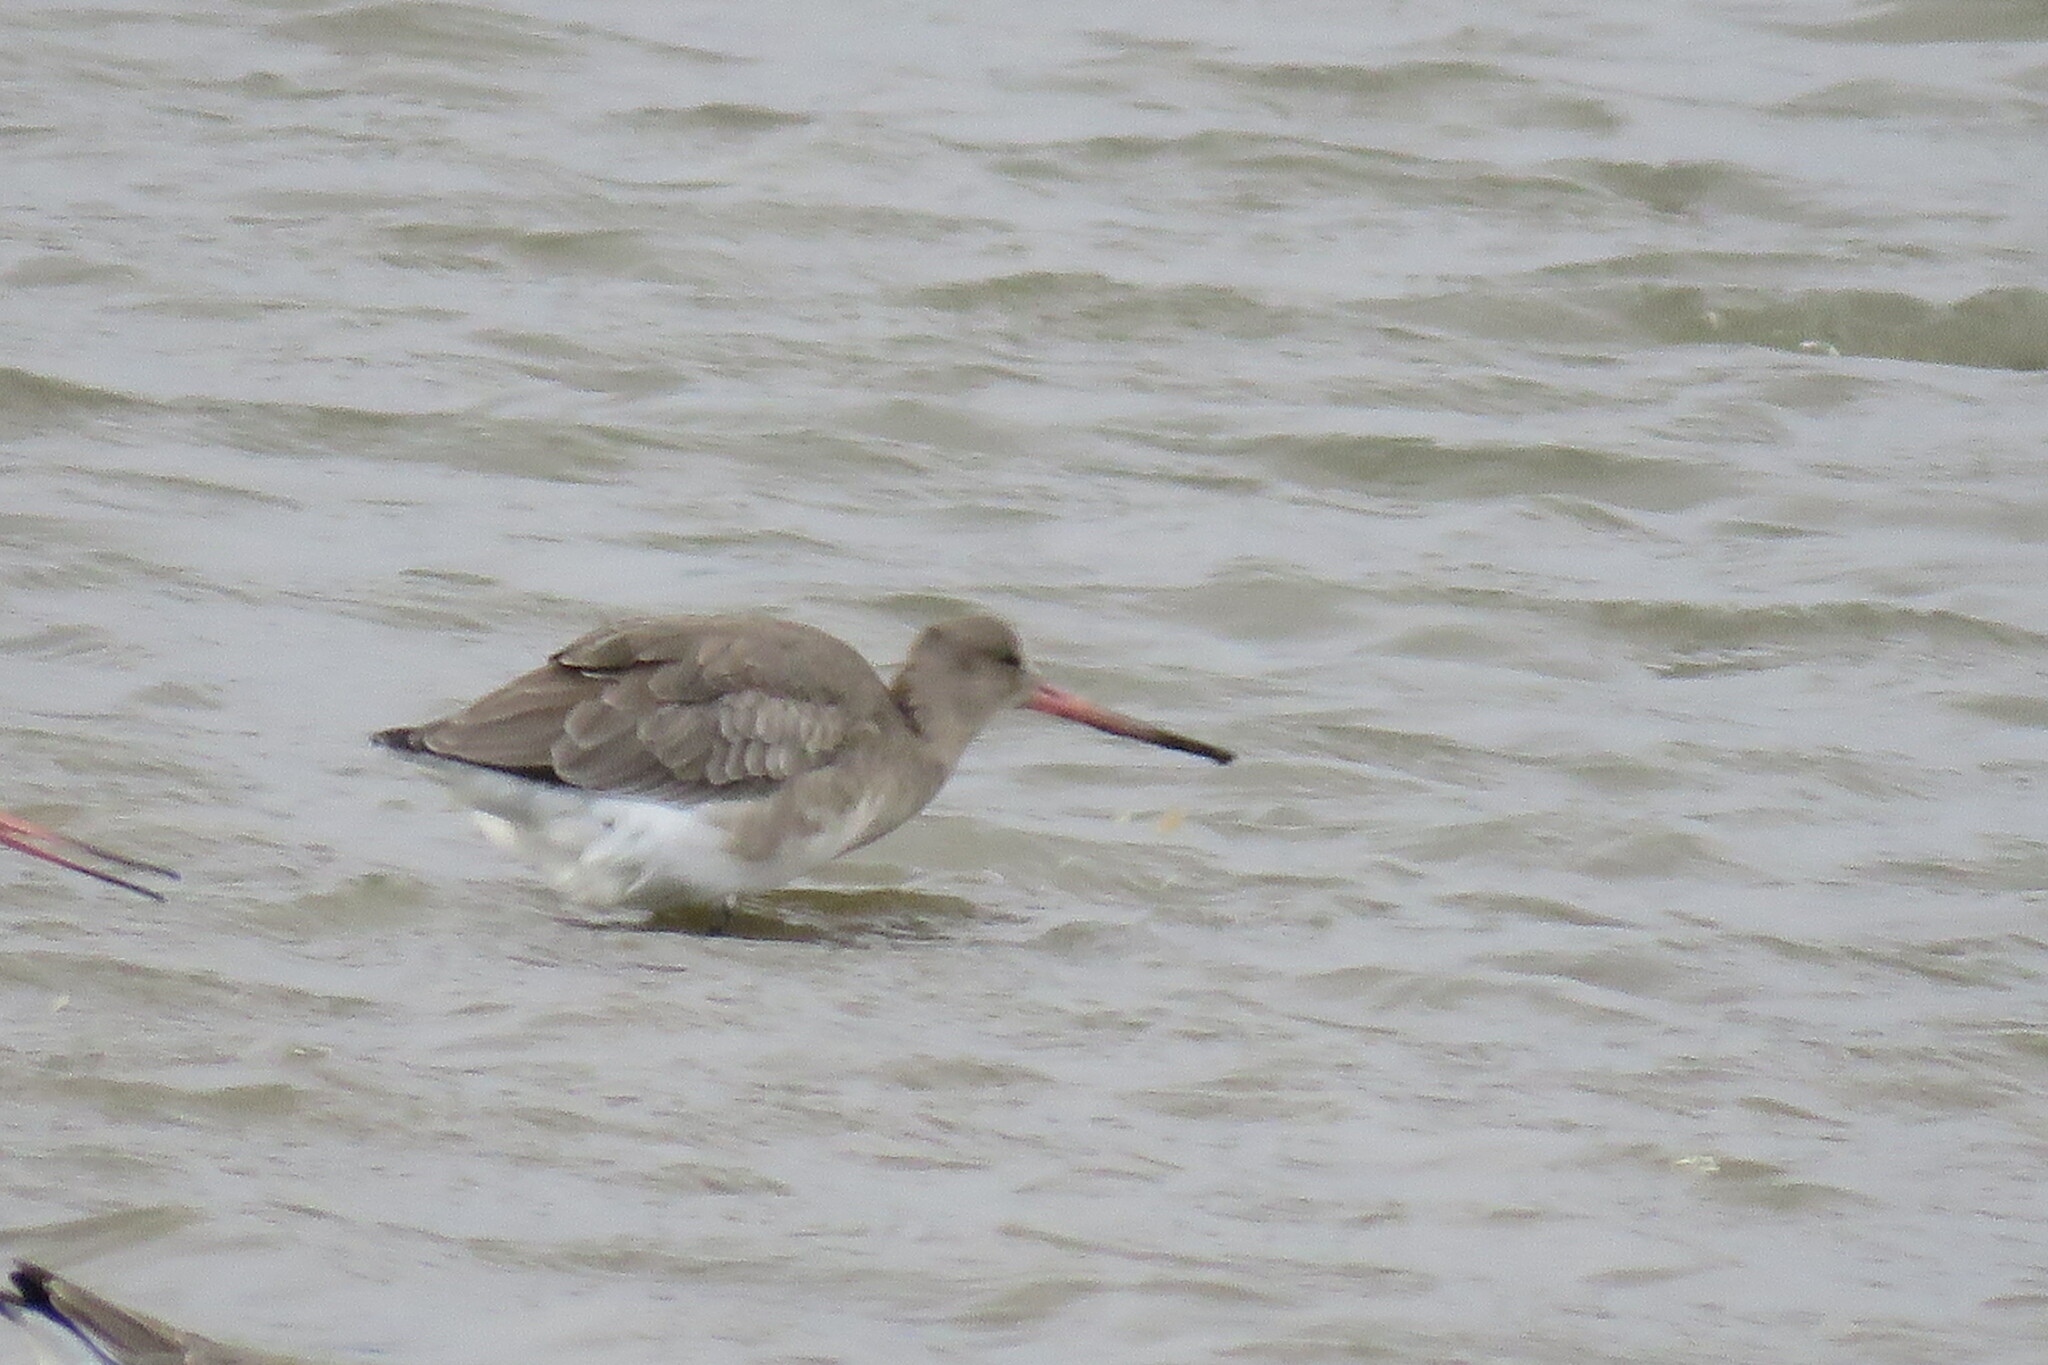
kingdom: Animalia
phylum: Chordata
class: Aves
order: Charadriiformes
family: Scolopacidae
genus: Limosa
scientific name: Limosa limosa
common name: Black-tailed godwit
